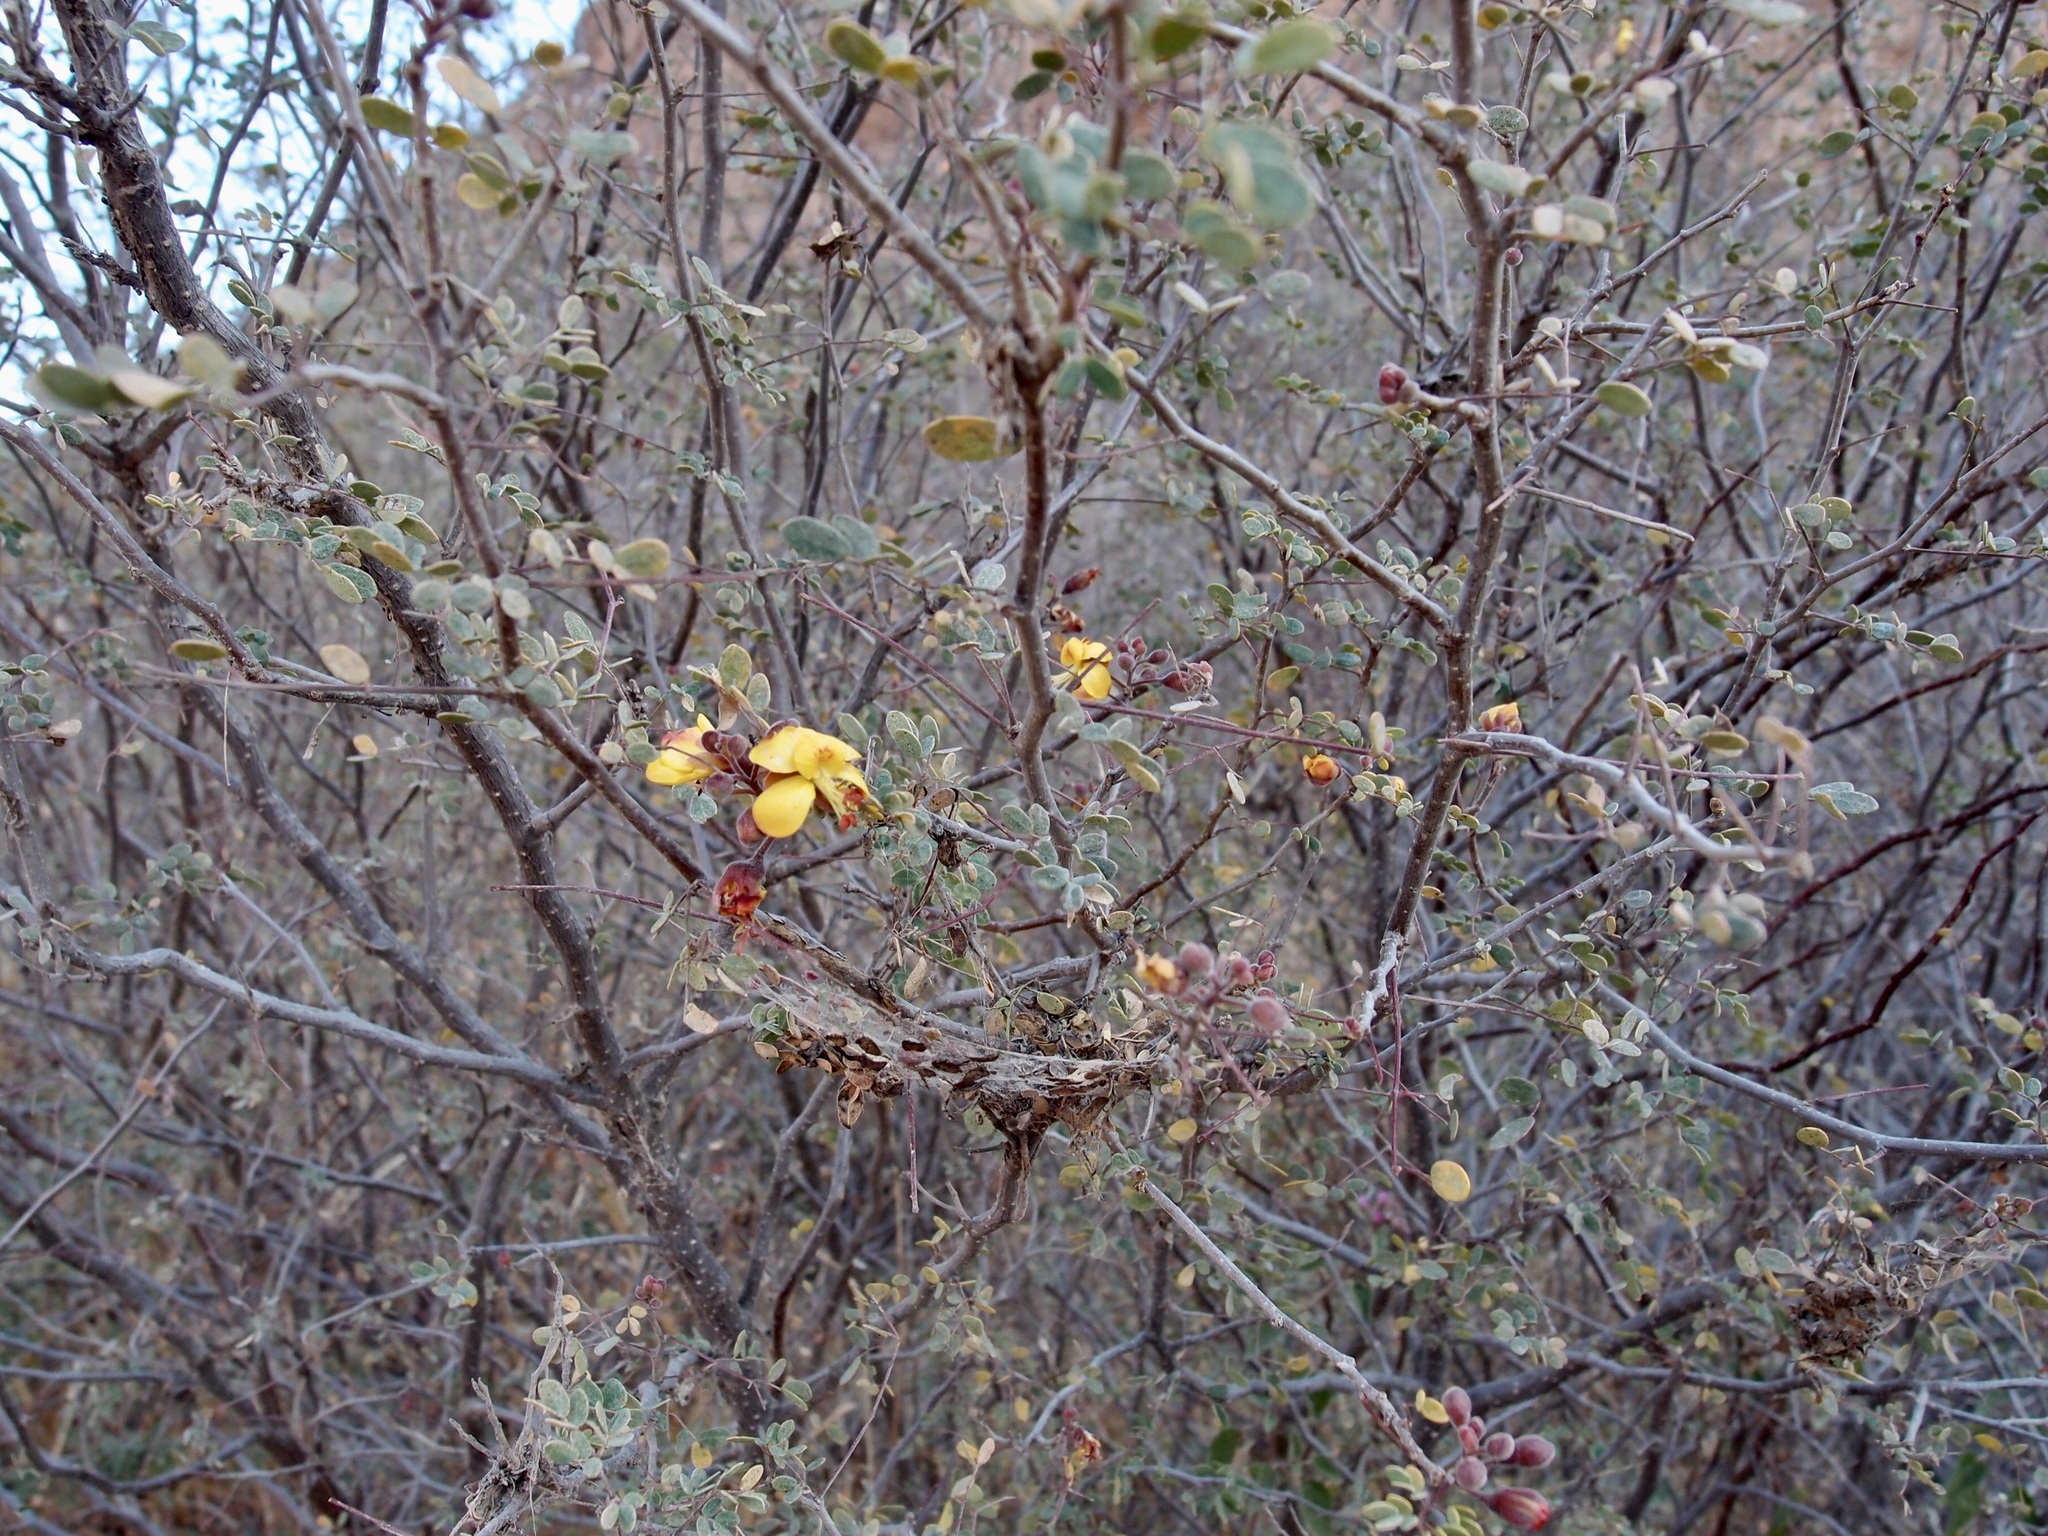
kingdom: Plantae
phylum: Tracheophyta
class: Magnoliopsida
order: Fabales
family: Fabaceae
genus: Erythrostemon
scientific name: Erythrostemon palmeri
